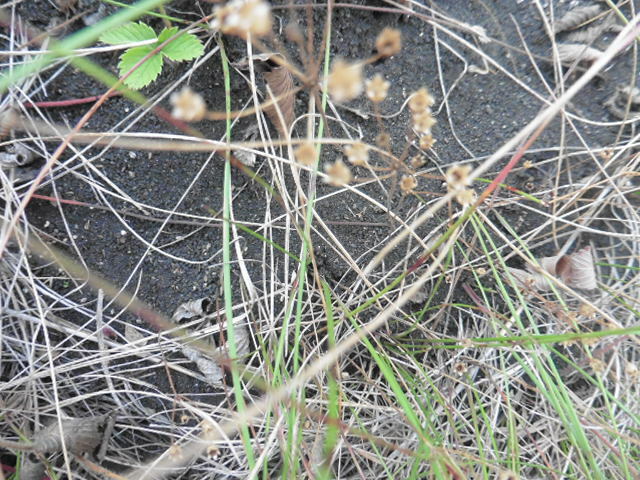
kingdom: Plantae
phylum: Tracheophyta
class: Magnoliopsida
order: Ericales
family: Primulaceae
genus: Androsace
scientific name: Androsace elongata
